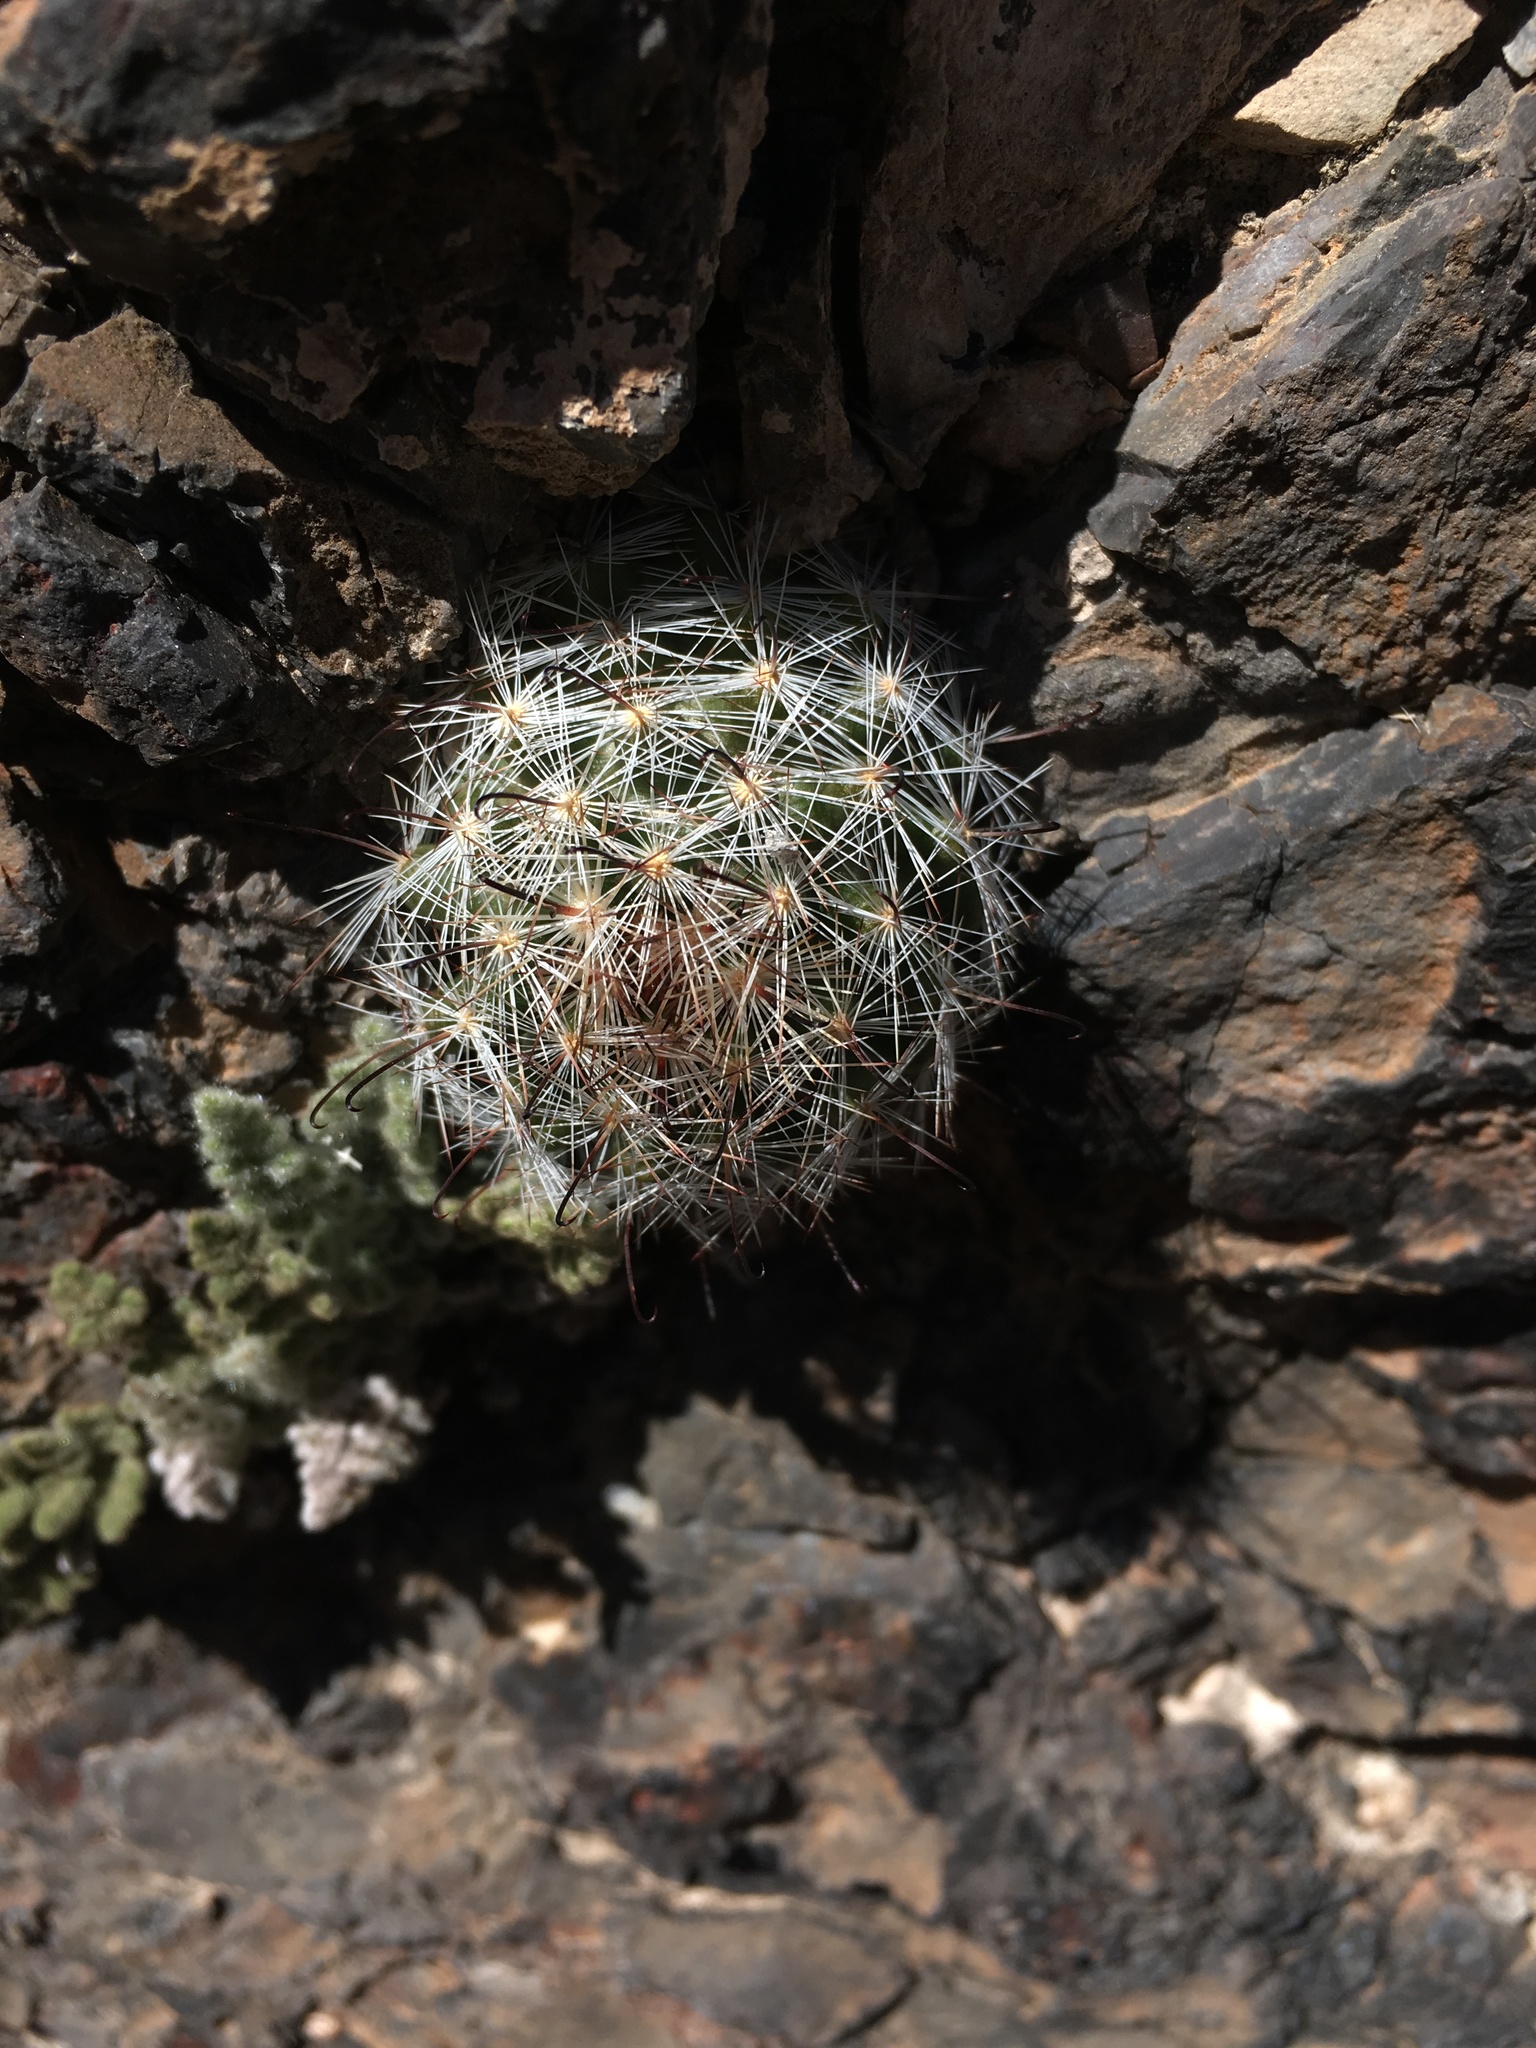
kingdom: Plantae
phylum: Tracheophyta
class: Magnoliopsida
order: Caryophyllales
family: Cactaceae
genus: Cochemiea
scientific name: Cochemiea tetrancistra
